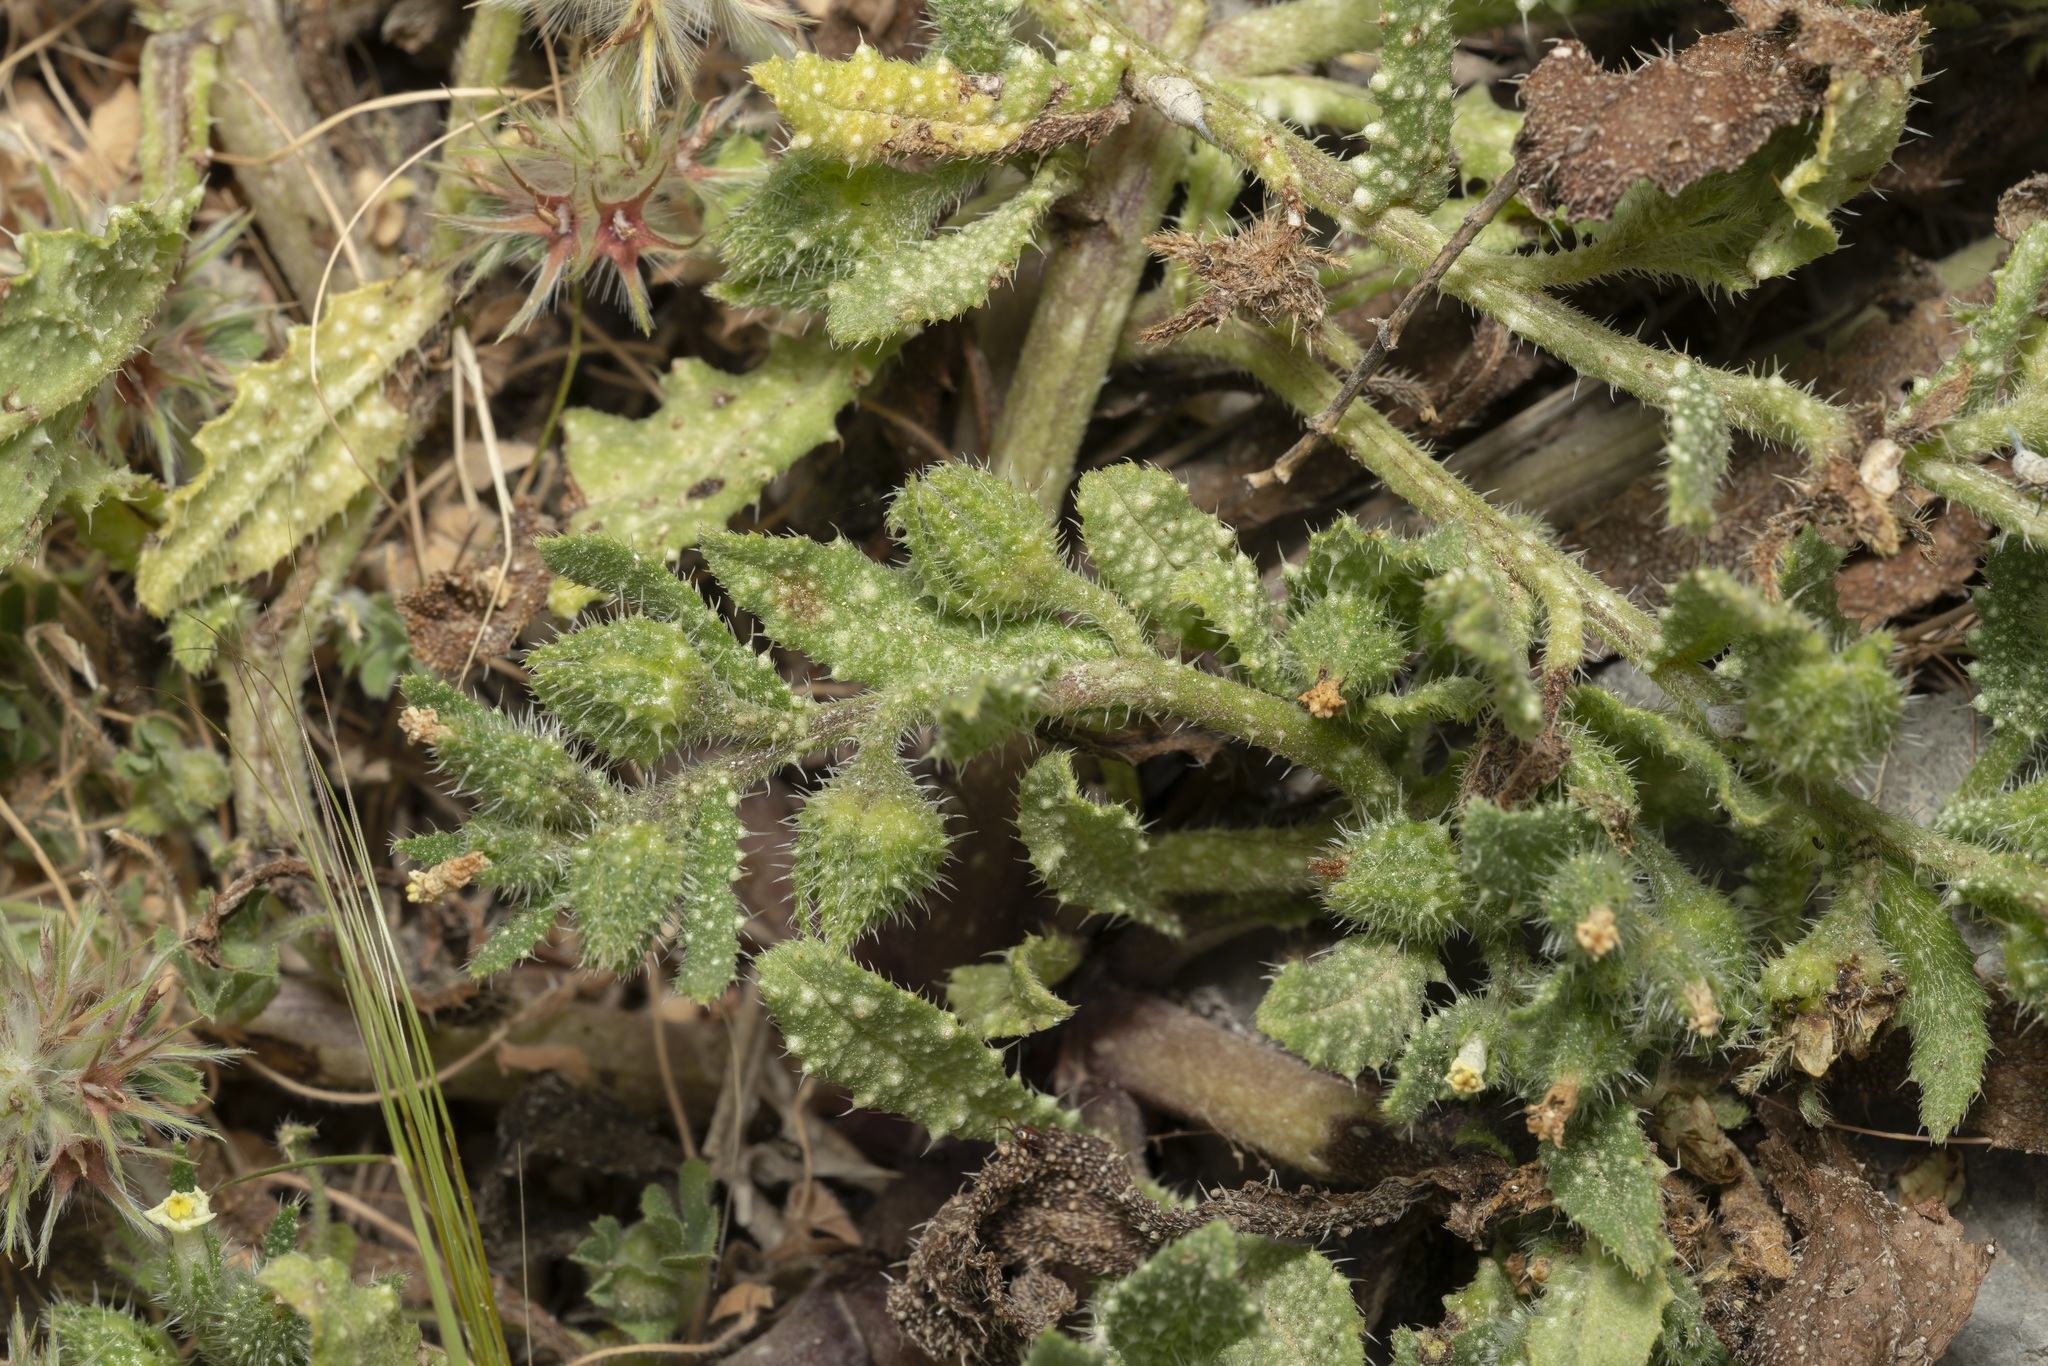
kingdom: Plantae
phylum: Tracheophyta
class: Magnoliopsida
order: Boraginales
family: Boraginaceae
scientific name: Boraginaceae
